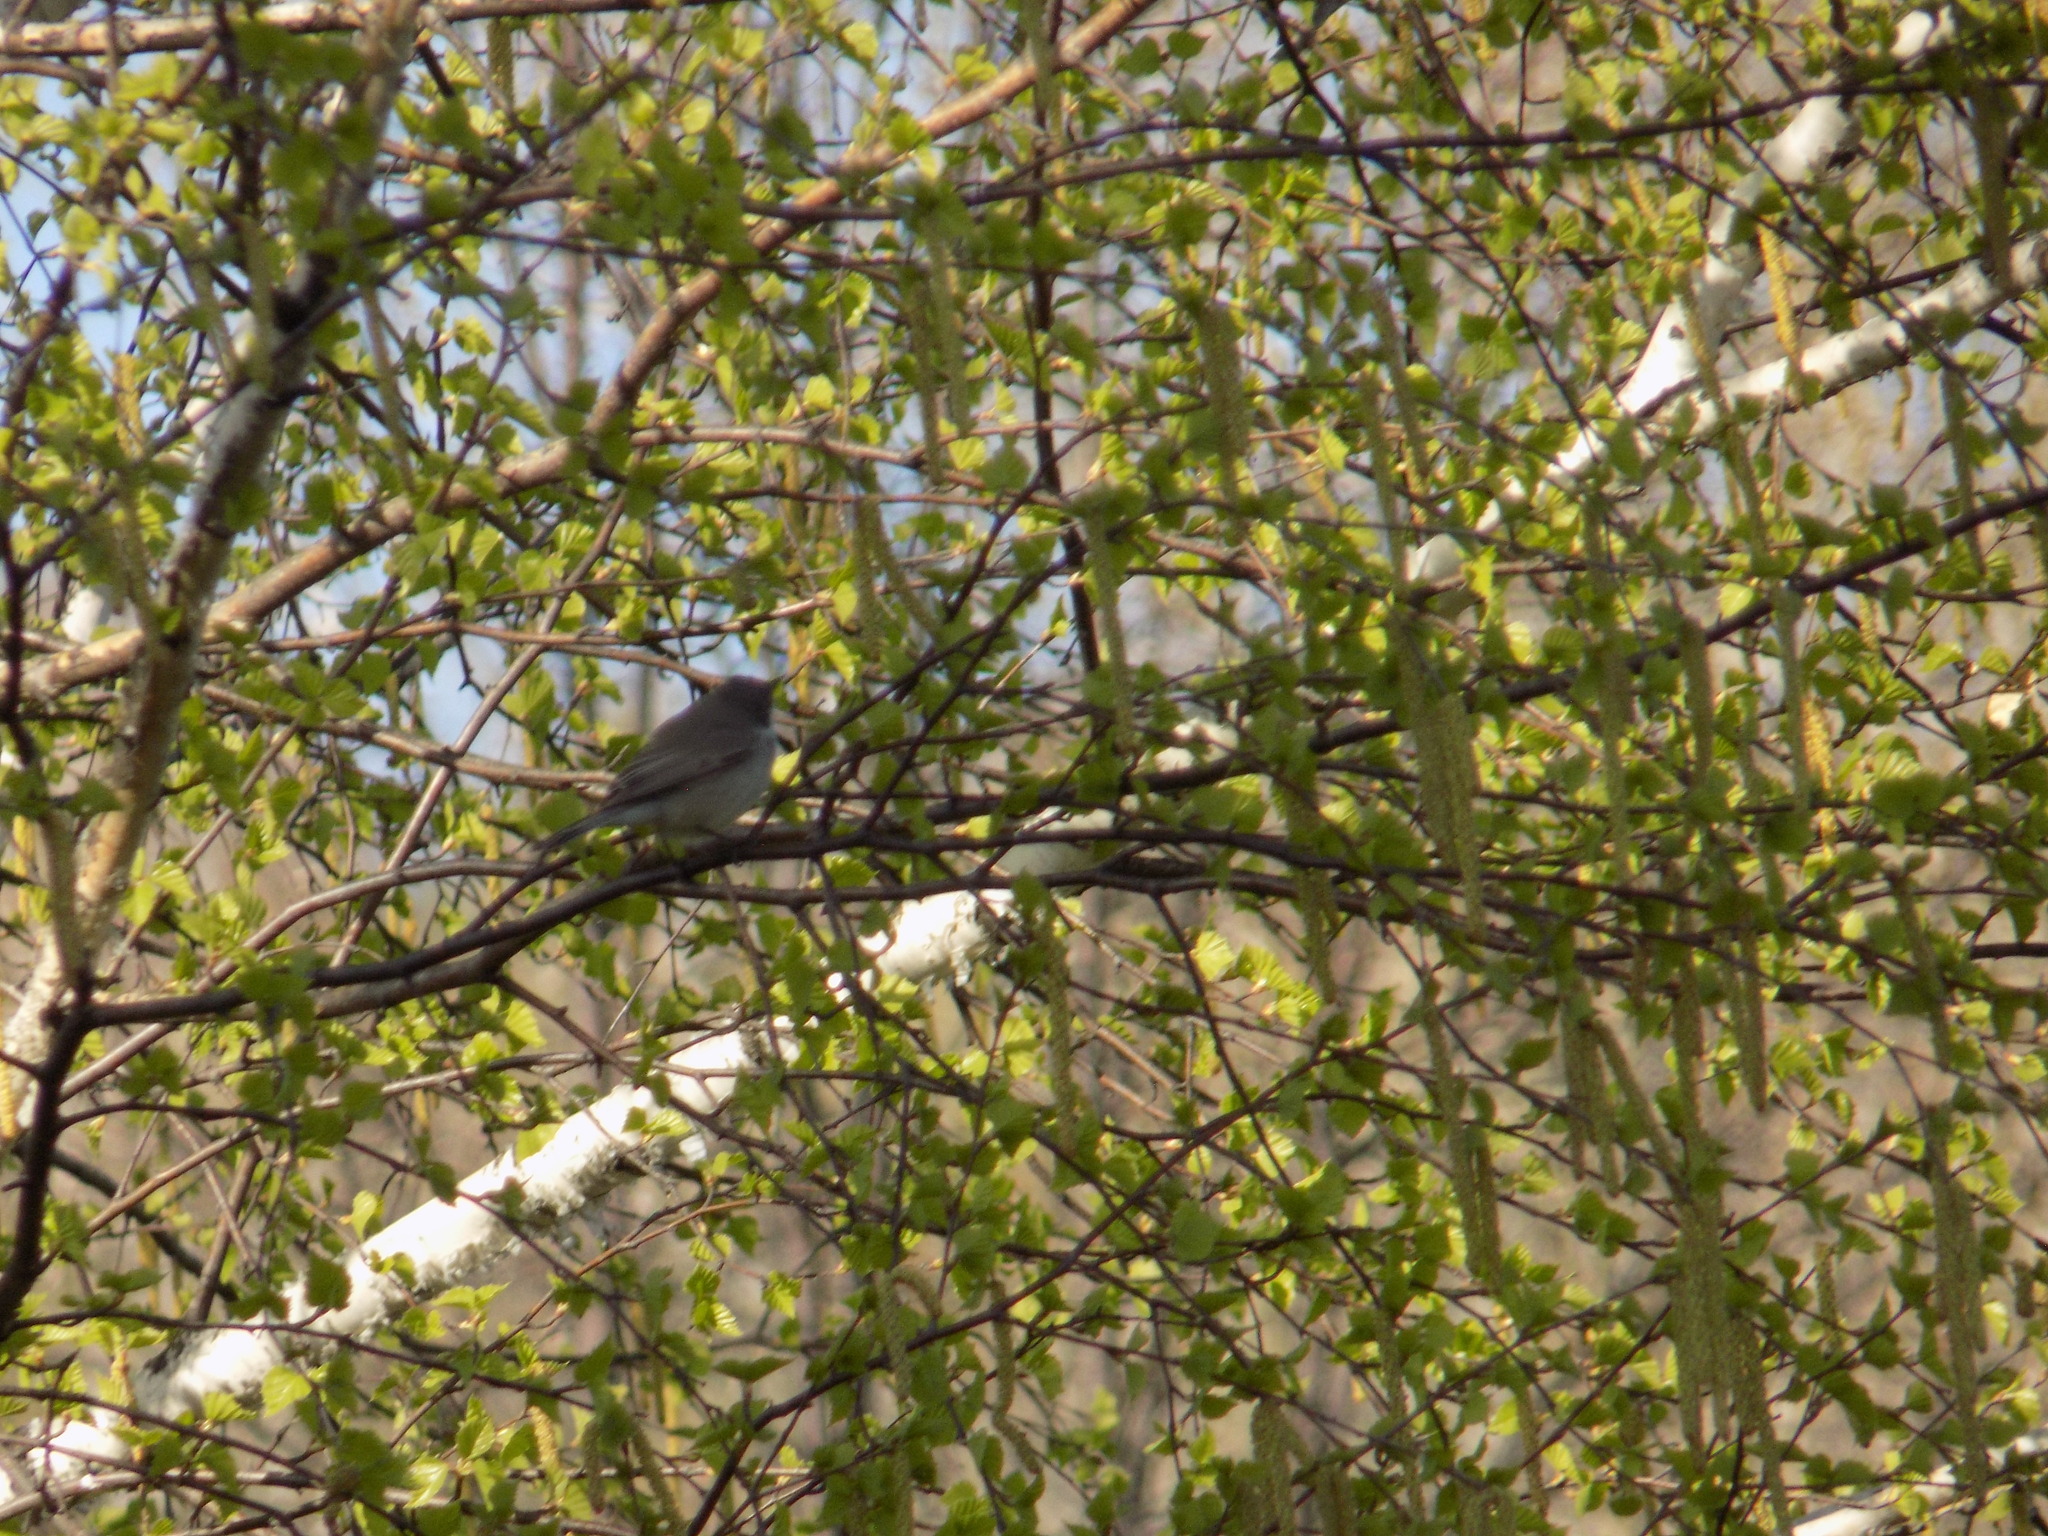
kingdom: Animalia
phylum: Chordata
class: Aves
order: Passeriformes
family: Sylviidae
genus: Sylvia
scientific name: Sylvia curruca
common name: Lesser whitethroat
